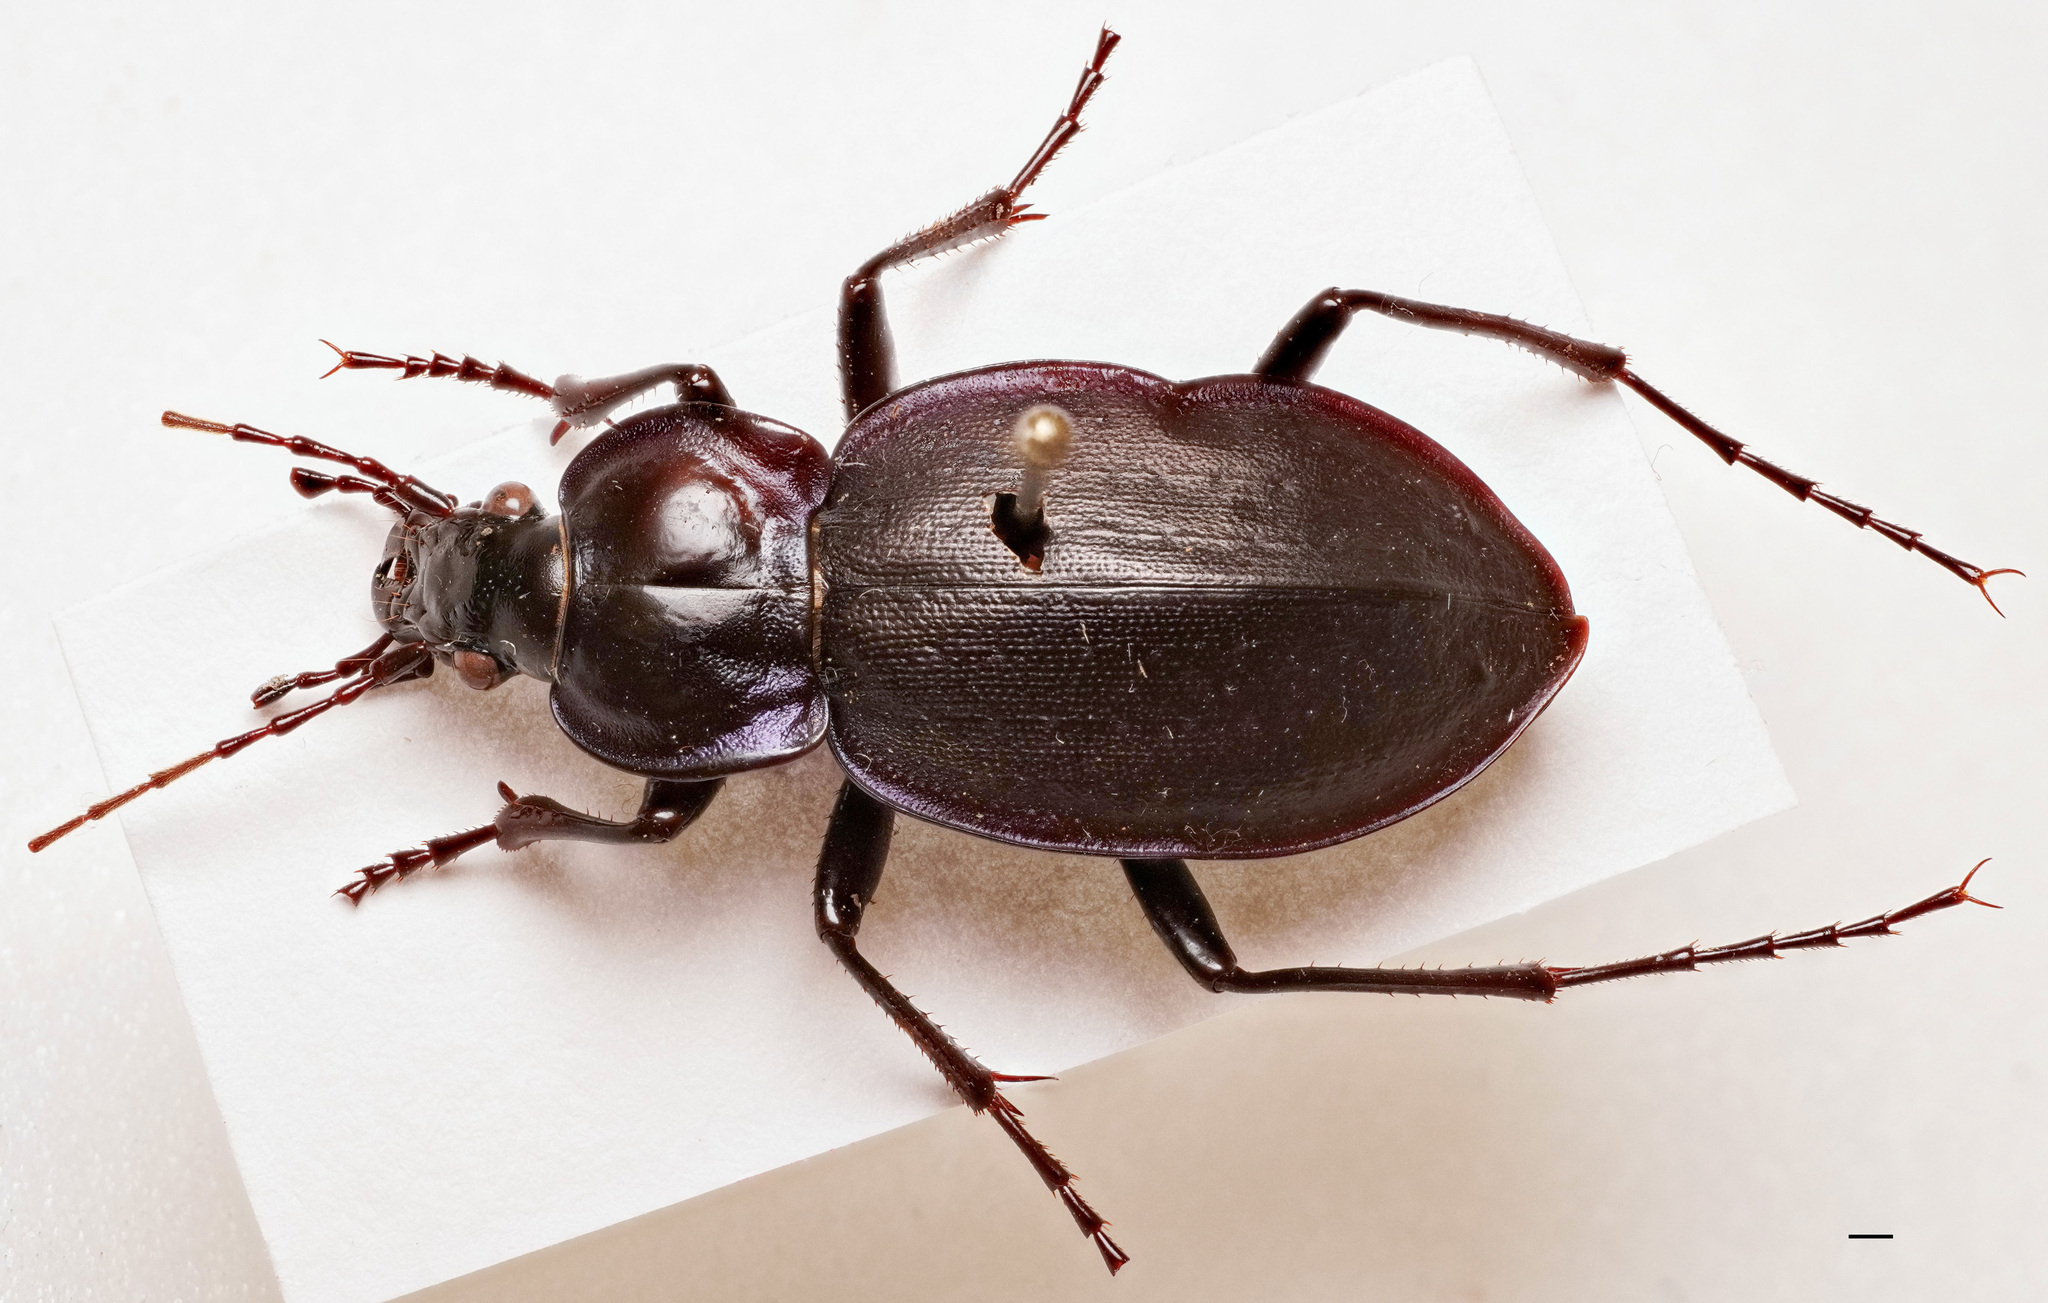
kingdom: Animalia
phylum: Arthropoda
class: Insecta
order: Coleoptera
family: Carabidae
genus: Carabus
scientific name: Carabus sylvosus
